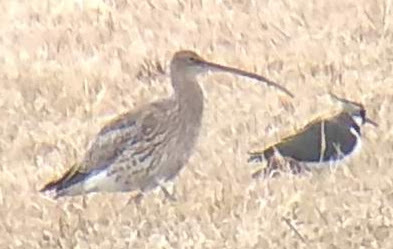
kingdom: Animalia
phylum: Chordata
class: Aves
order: Charadriiformes
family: Scolopacidae
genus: Numenius
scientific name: Numenius arquata
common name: Eurasian curlew
